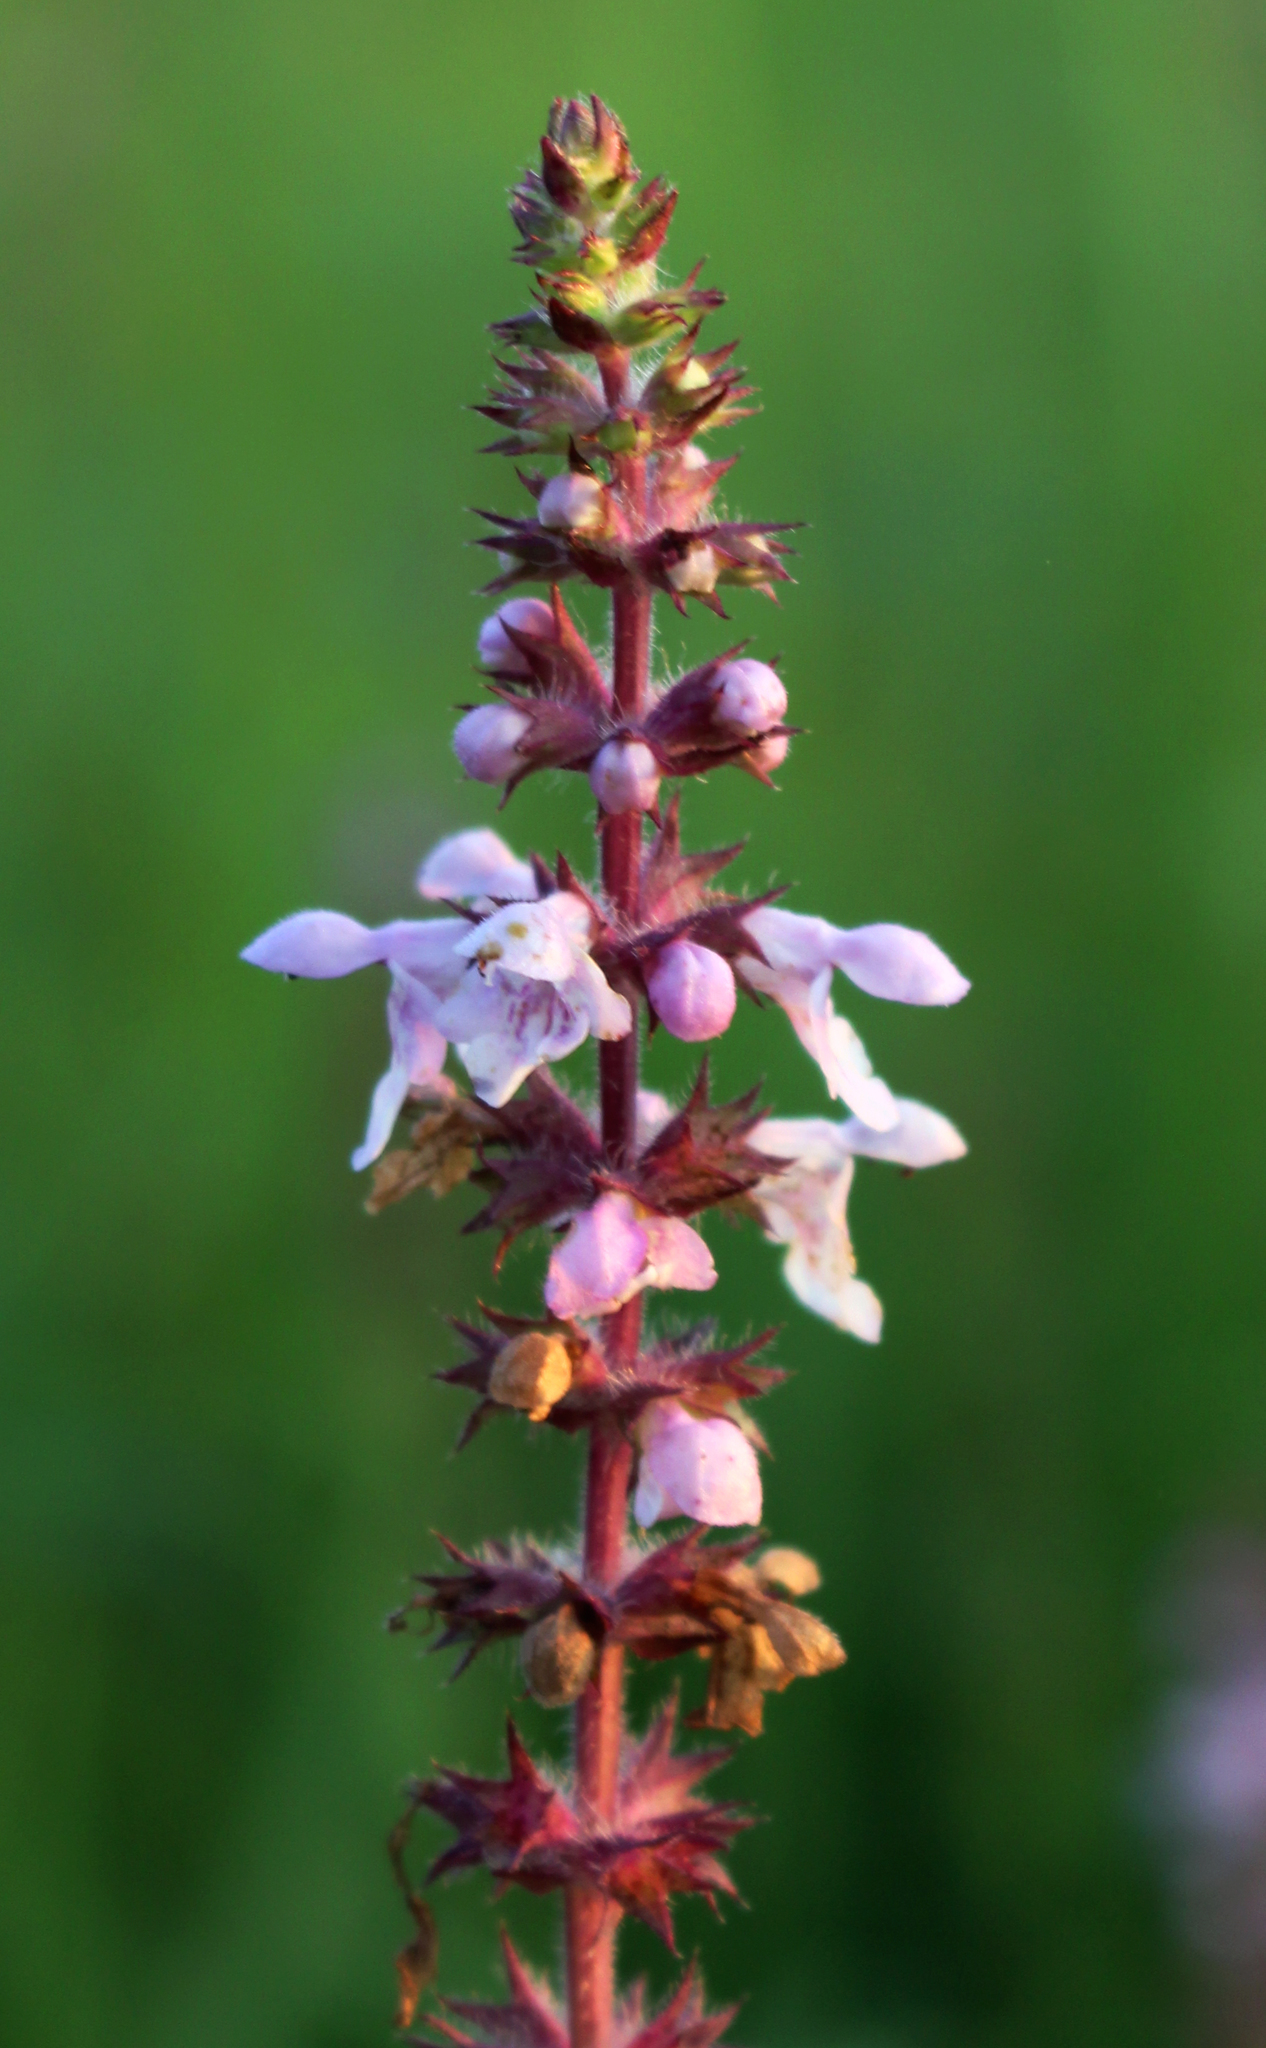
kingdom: Plantae
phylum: Tracheophyta
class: Magnoliopsida
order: Lamiales
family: Lamiaceae
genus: Stachys
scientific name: Stachys hispida
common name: Hispid hedge-nettle
